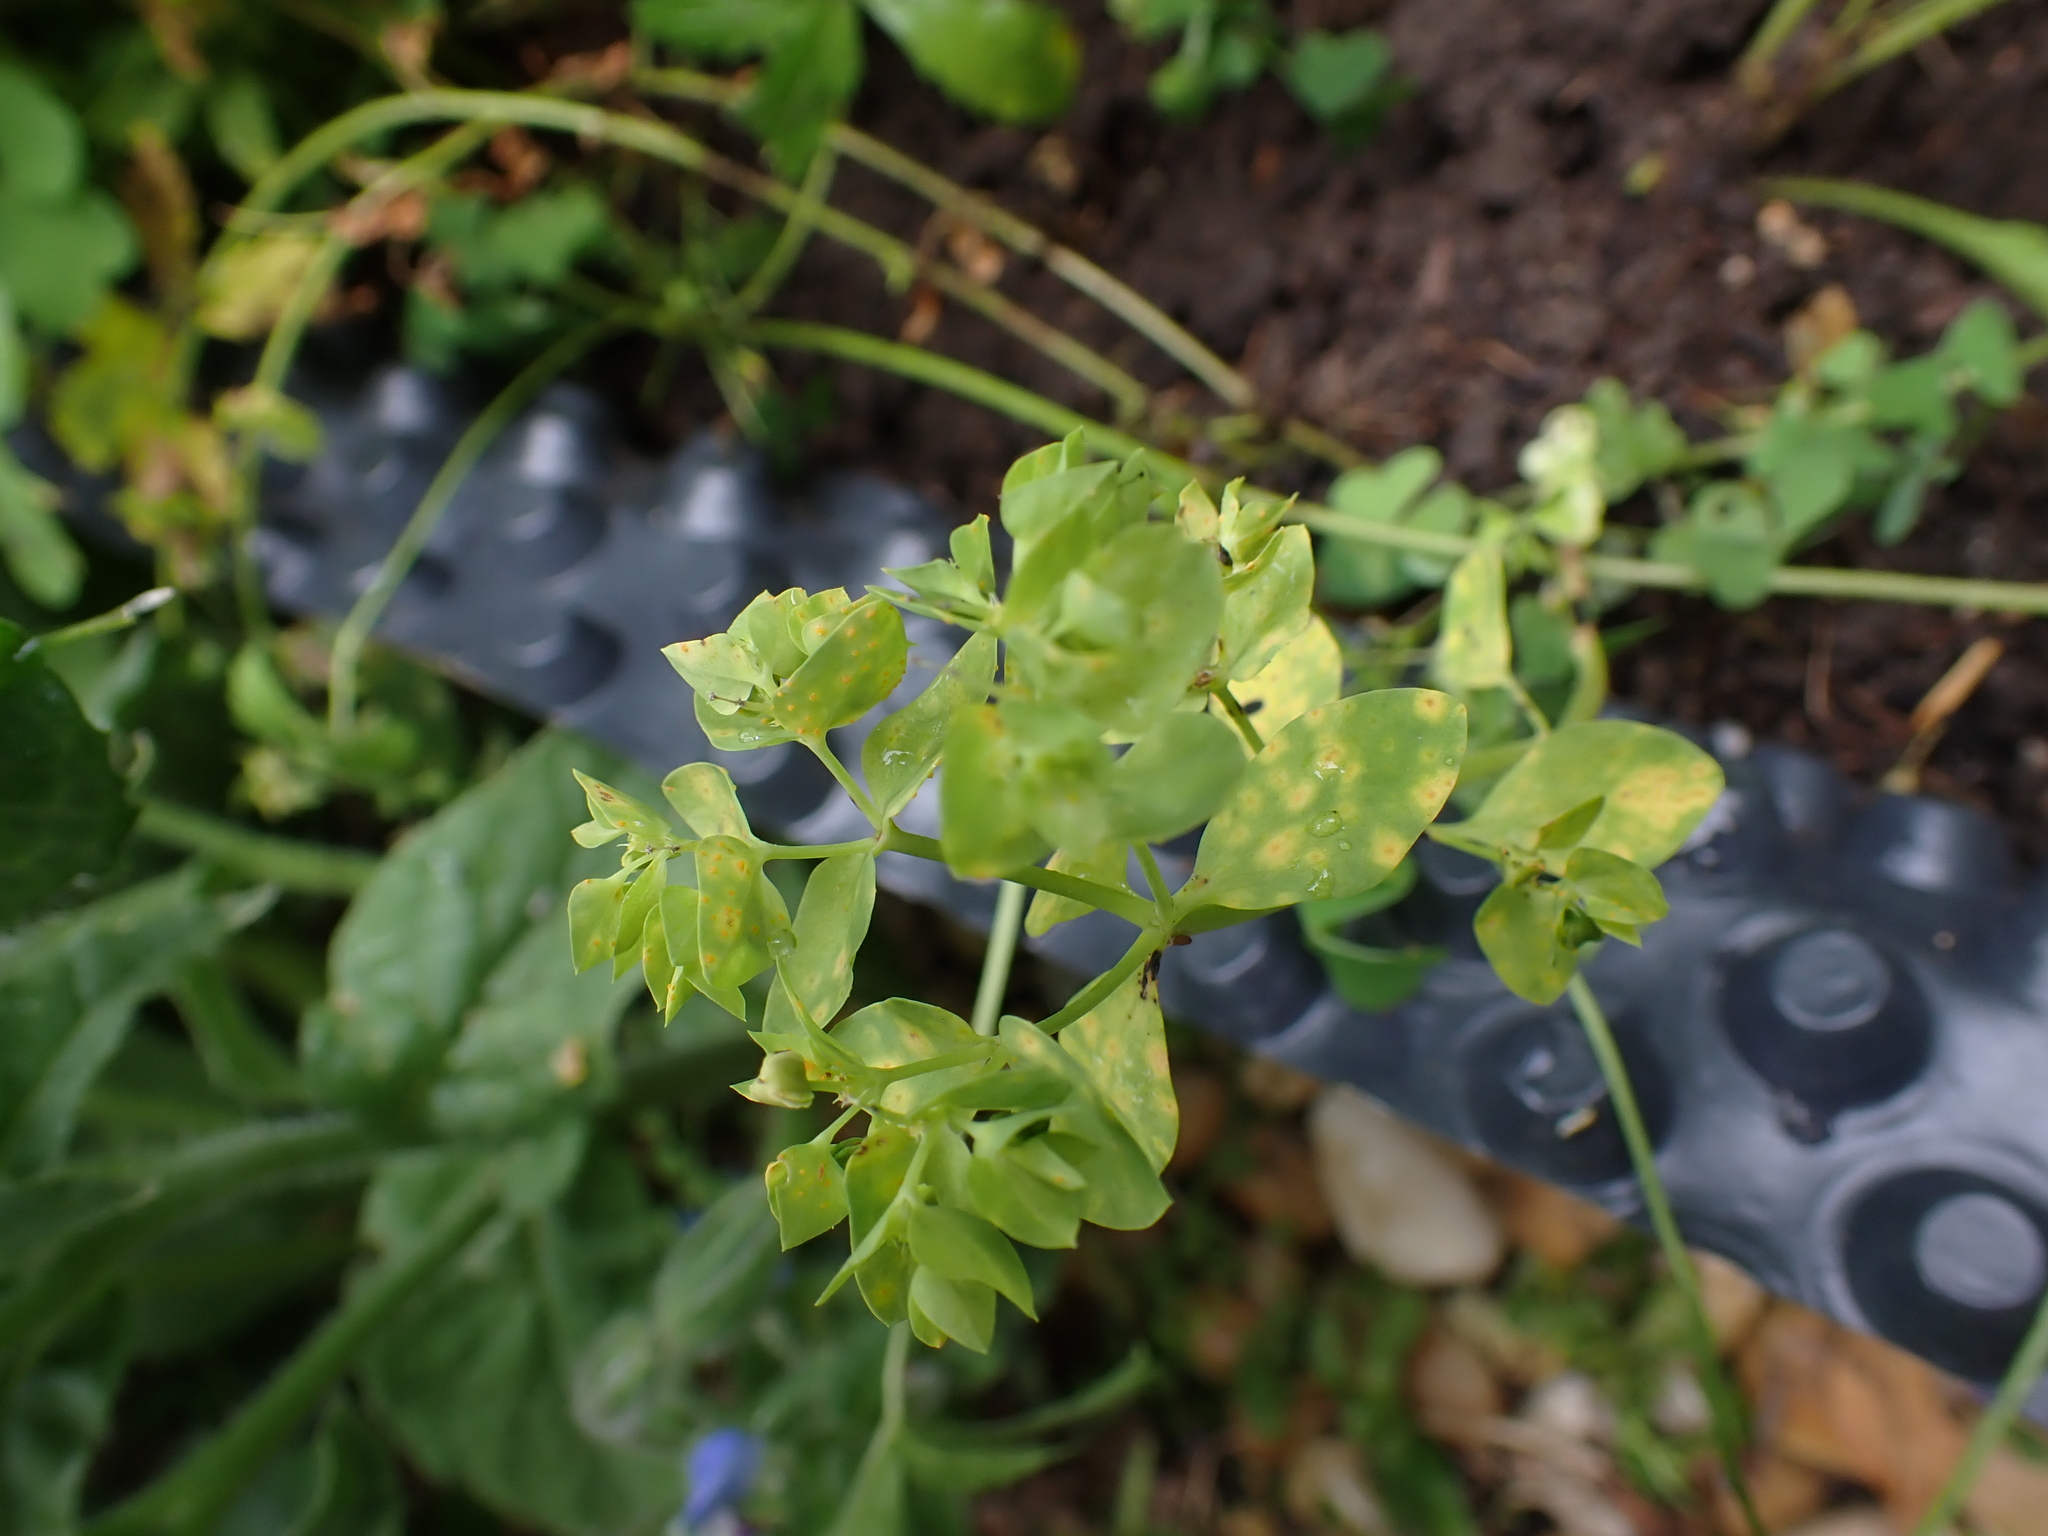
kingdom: Fungi
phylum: Basidiomycota
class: Pucciniomycetes
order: Pucciniales
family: Melampsoraceae
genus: Melampsora
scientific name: Melampsora euphorbiae
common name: Spurge rust
